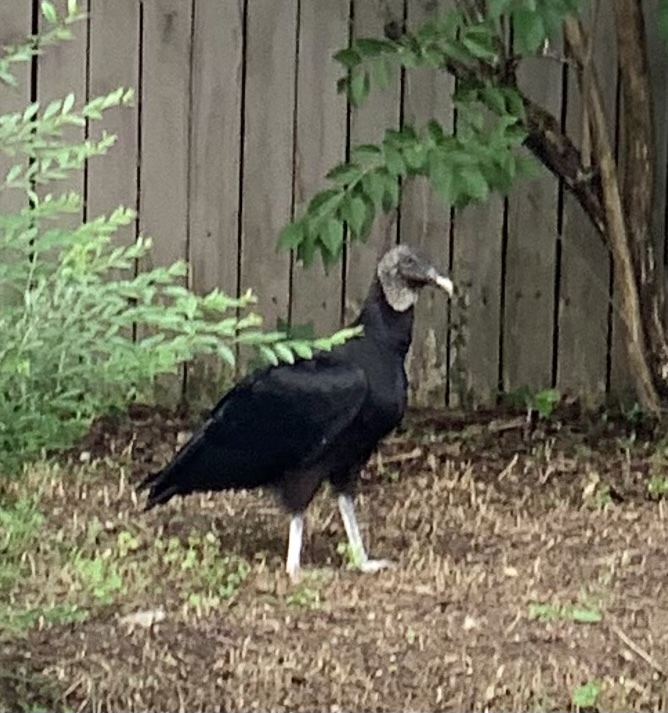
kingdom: Animalia
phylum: Chordata
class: Aves
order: Accipitriformes
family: Cathartidae
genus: Coragyps
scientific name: Coragyps atratus
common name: Black vulture
